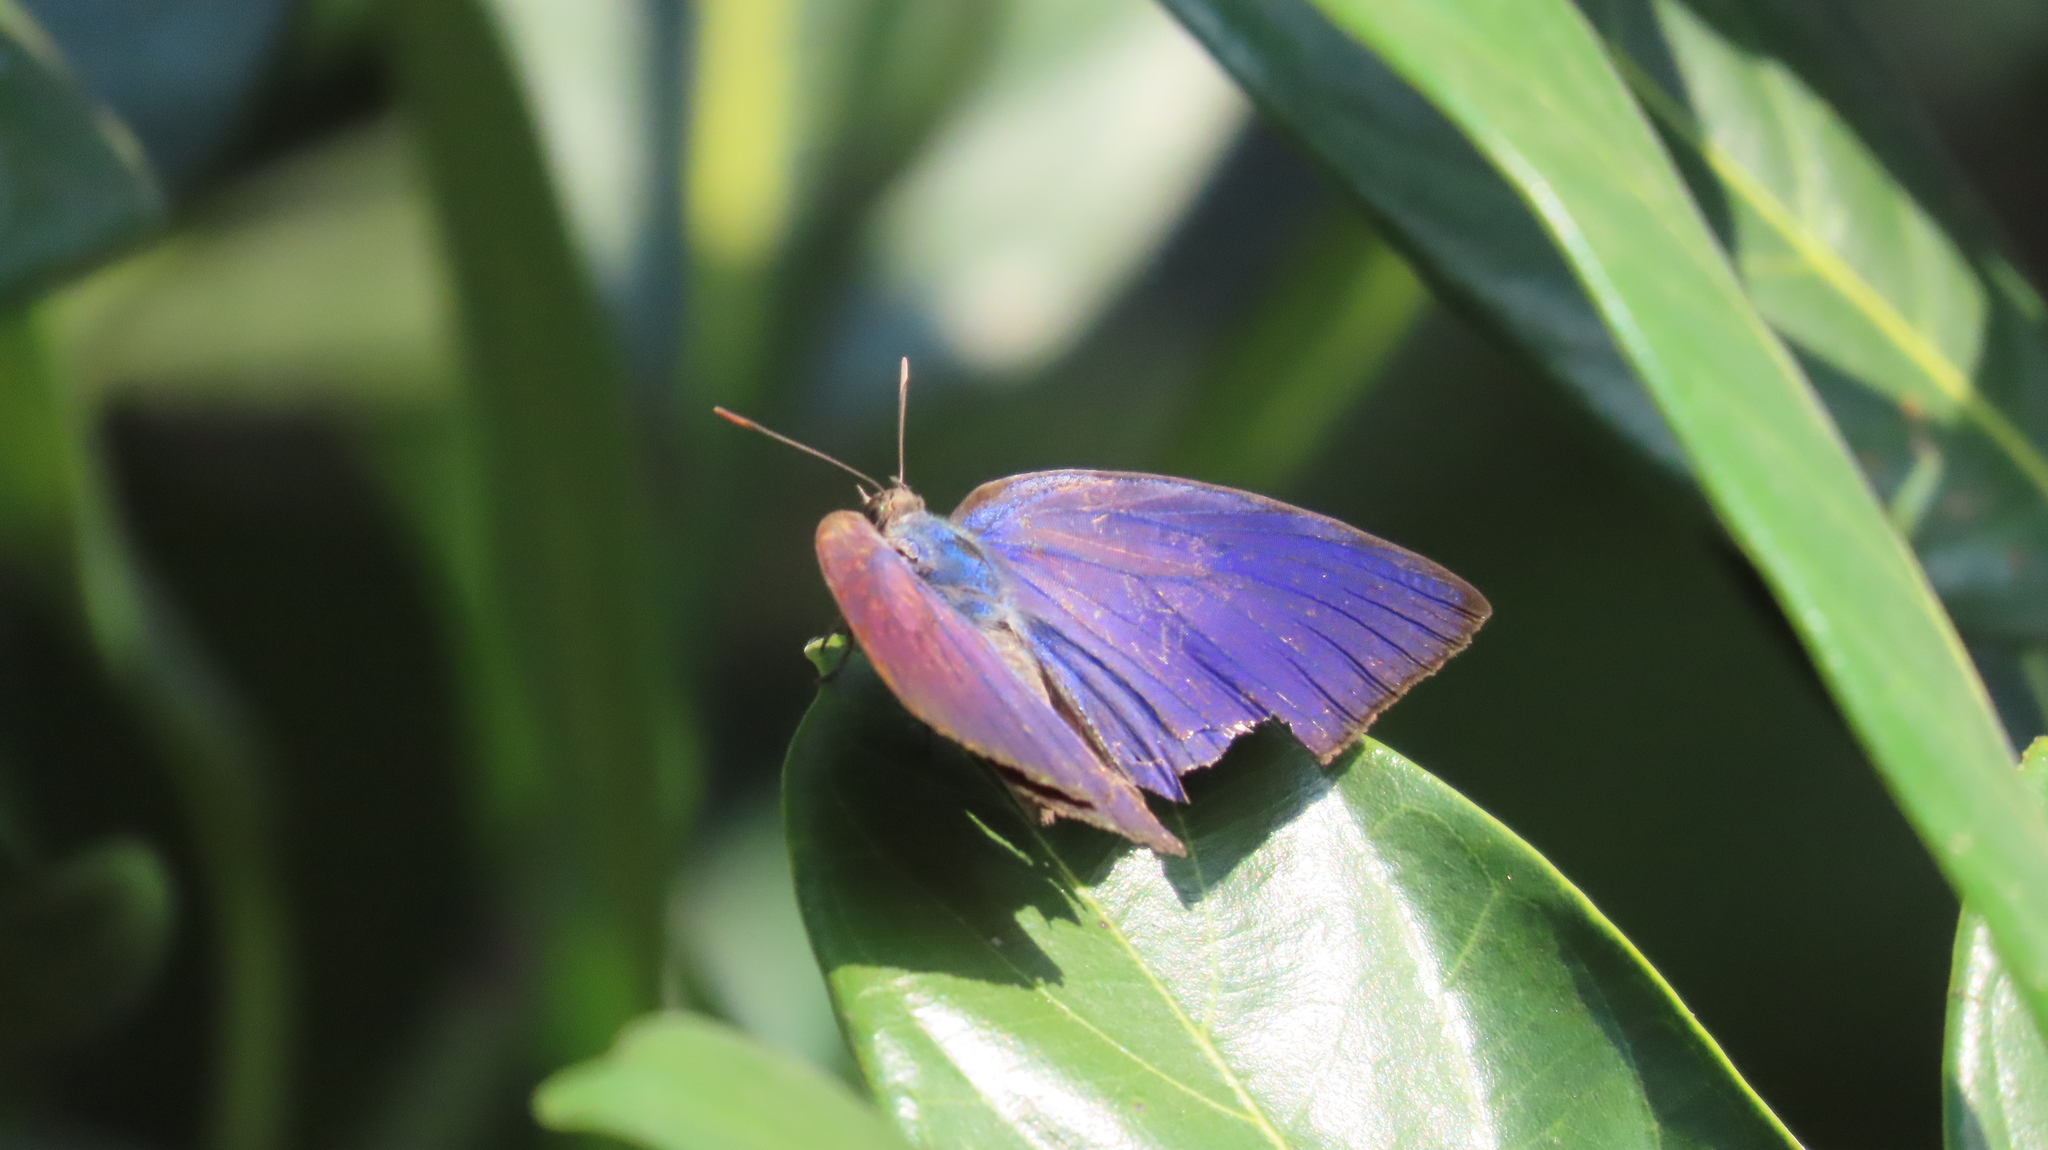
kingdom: Animalia
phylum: Arthropoda
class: Insecta
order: Lepidoptera
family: Lycaenidae
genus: Arhopala
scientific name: Arhopala centaurus
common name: Dull oak-blue
